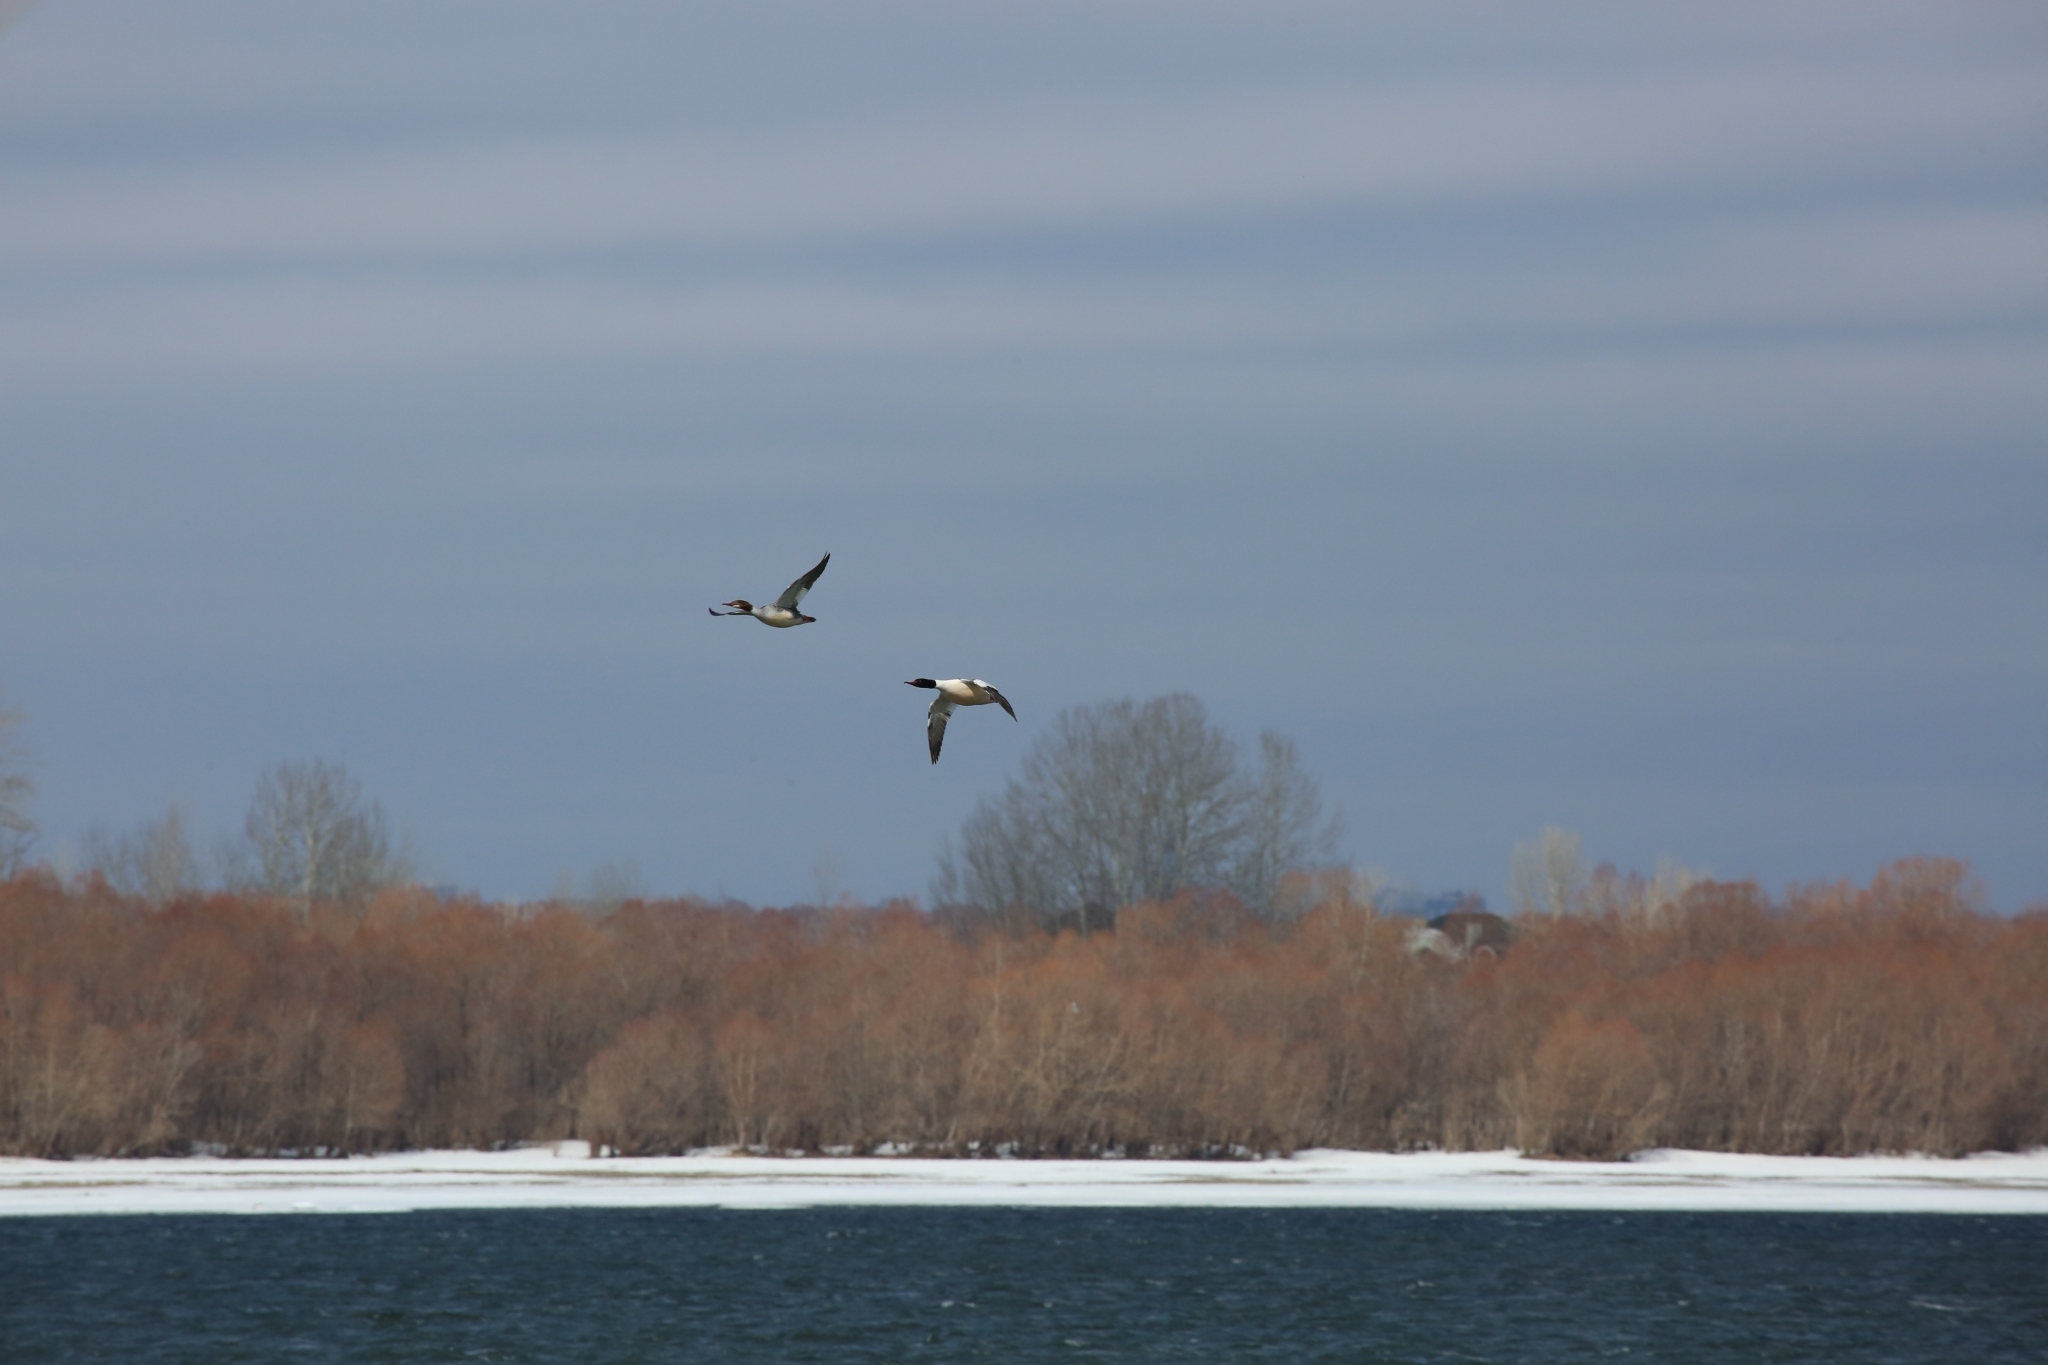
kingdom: Animalia
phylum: Chordata
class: Aves
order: Anseriformes
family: Anatidae
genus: Mergus
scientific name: Mergus merganser
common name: Common merganser
